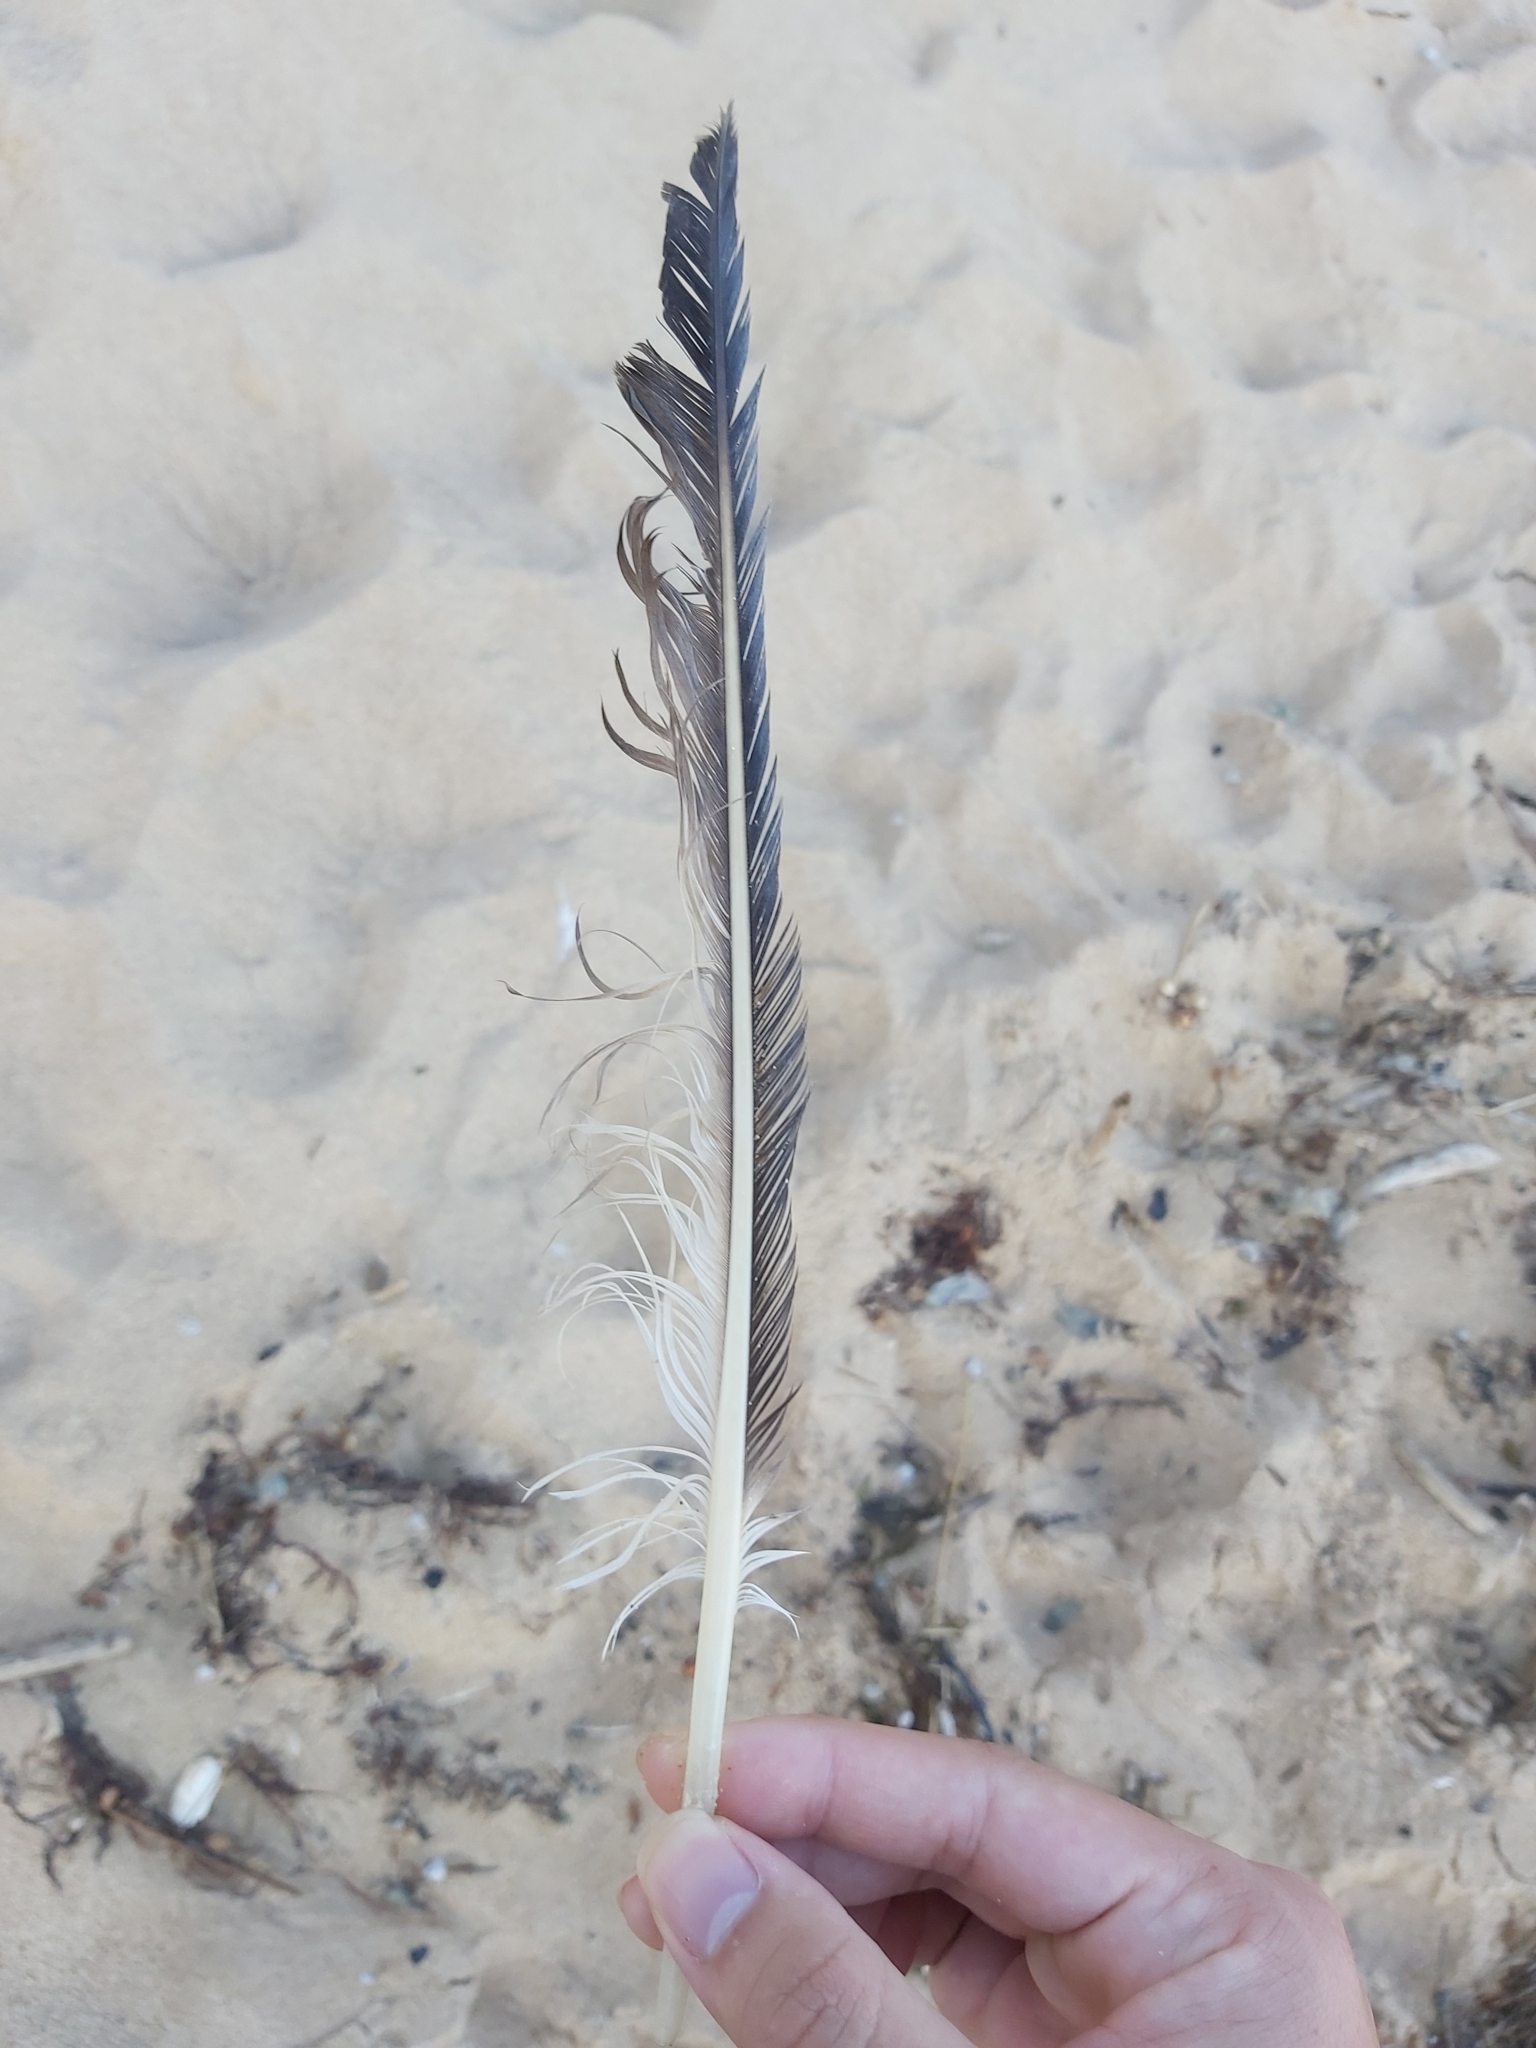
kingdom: Animalia
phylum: Chordata
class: Aves
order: Charadriiformes
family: Laridae
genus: Thalasseus
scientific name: Thalasseus bergii
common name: Greater crested tern
